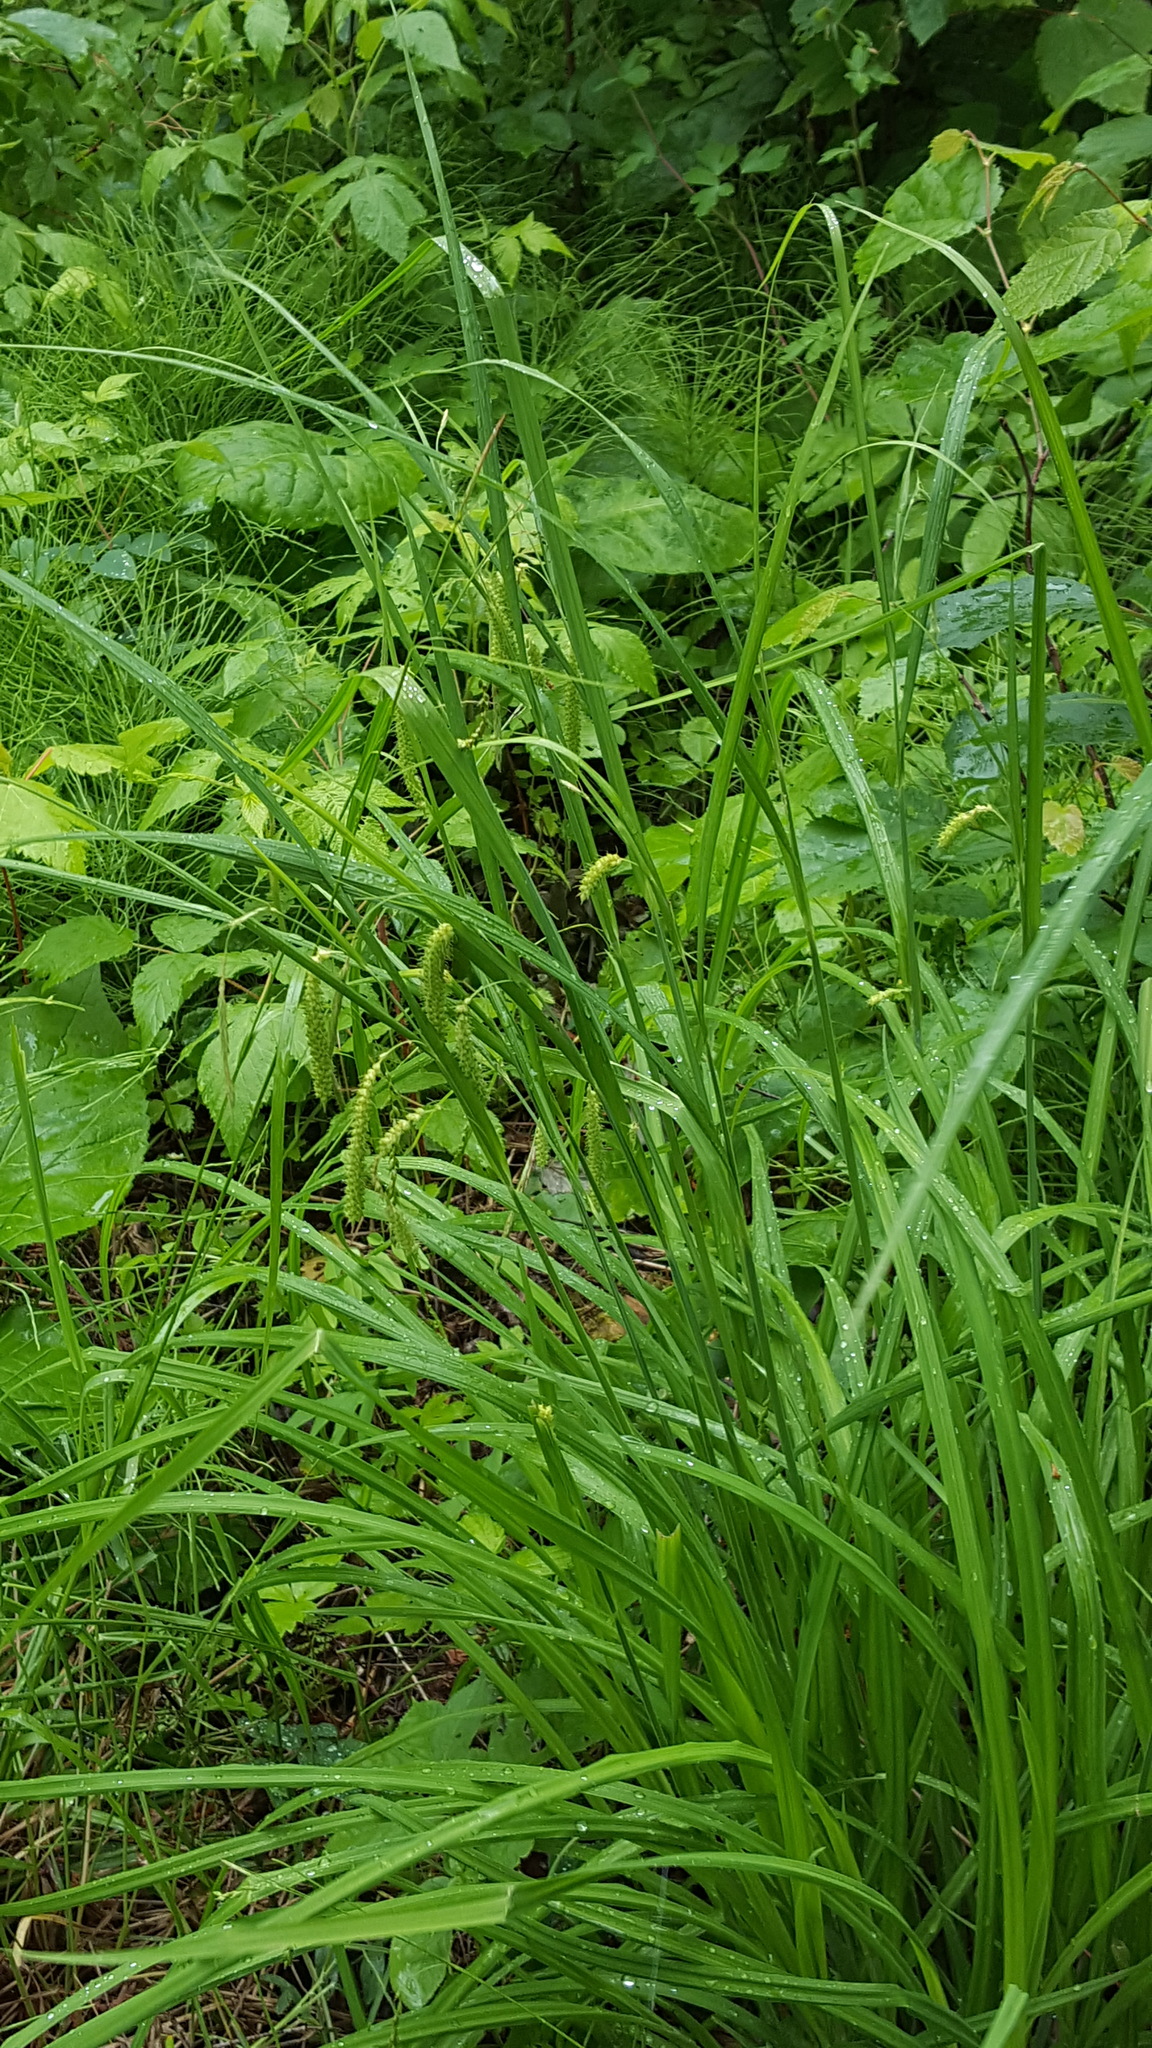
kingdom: Plantae
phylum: Tracheophyta
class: Liliopsida
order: Poales
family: Cyperaceae
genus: Carex
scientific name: Carex crinita
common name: Fringed sedge
